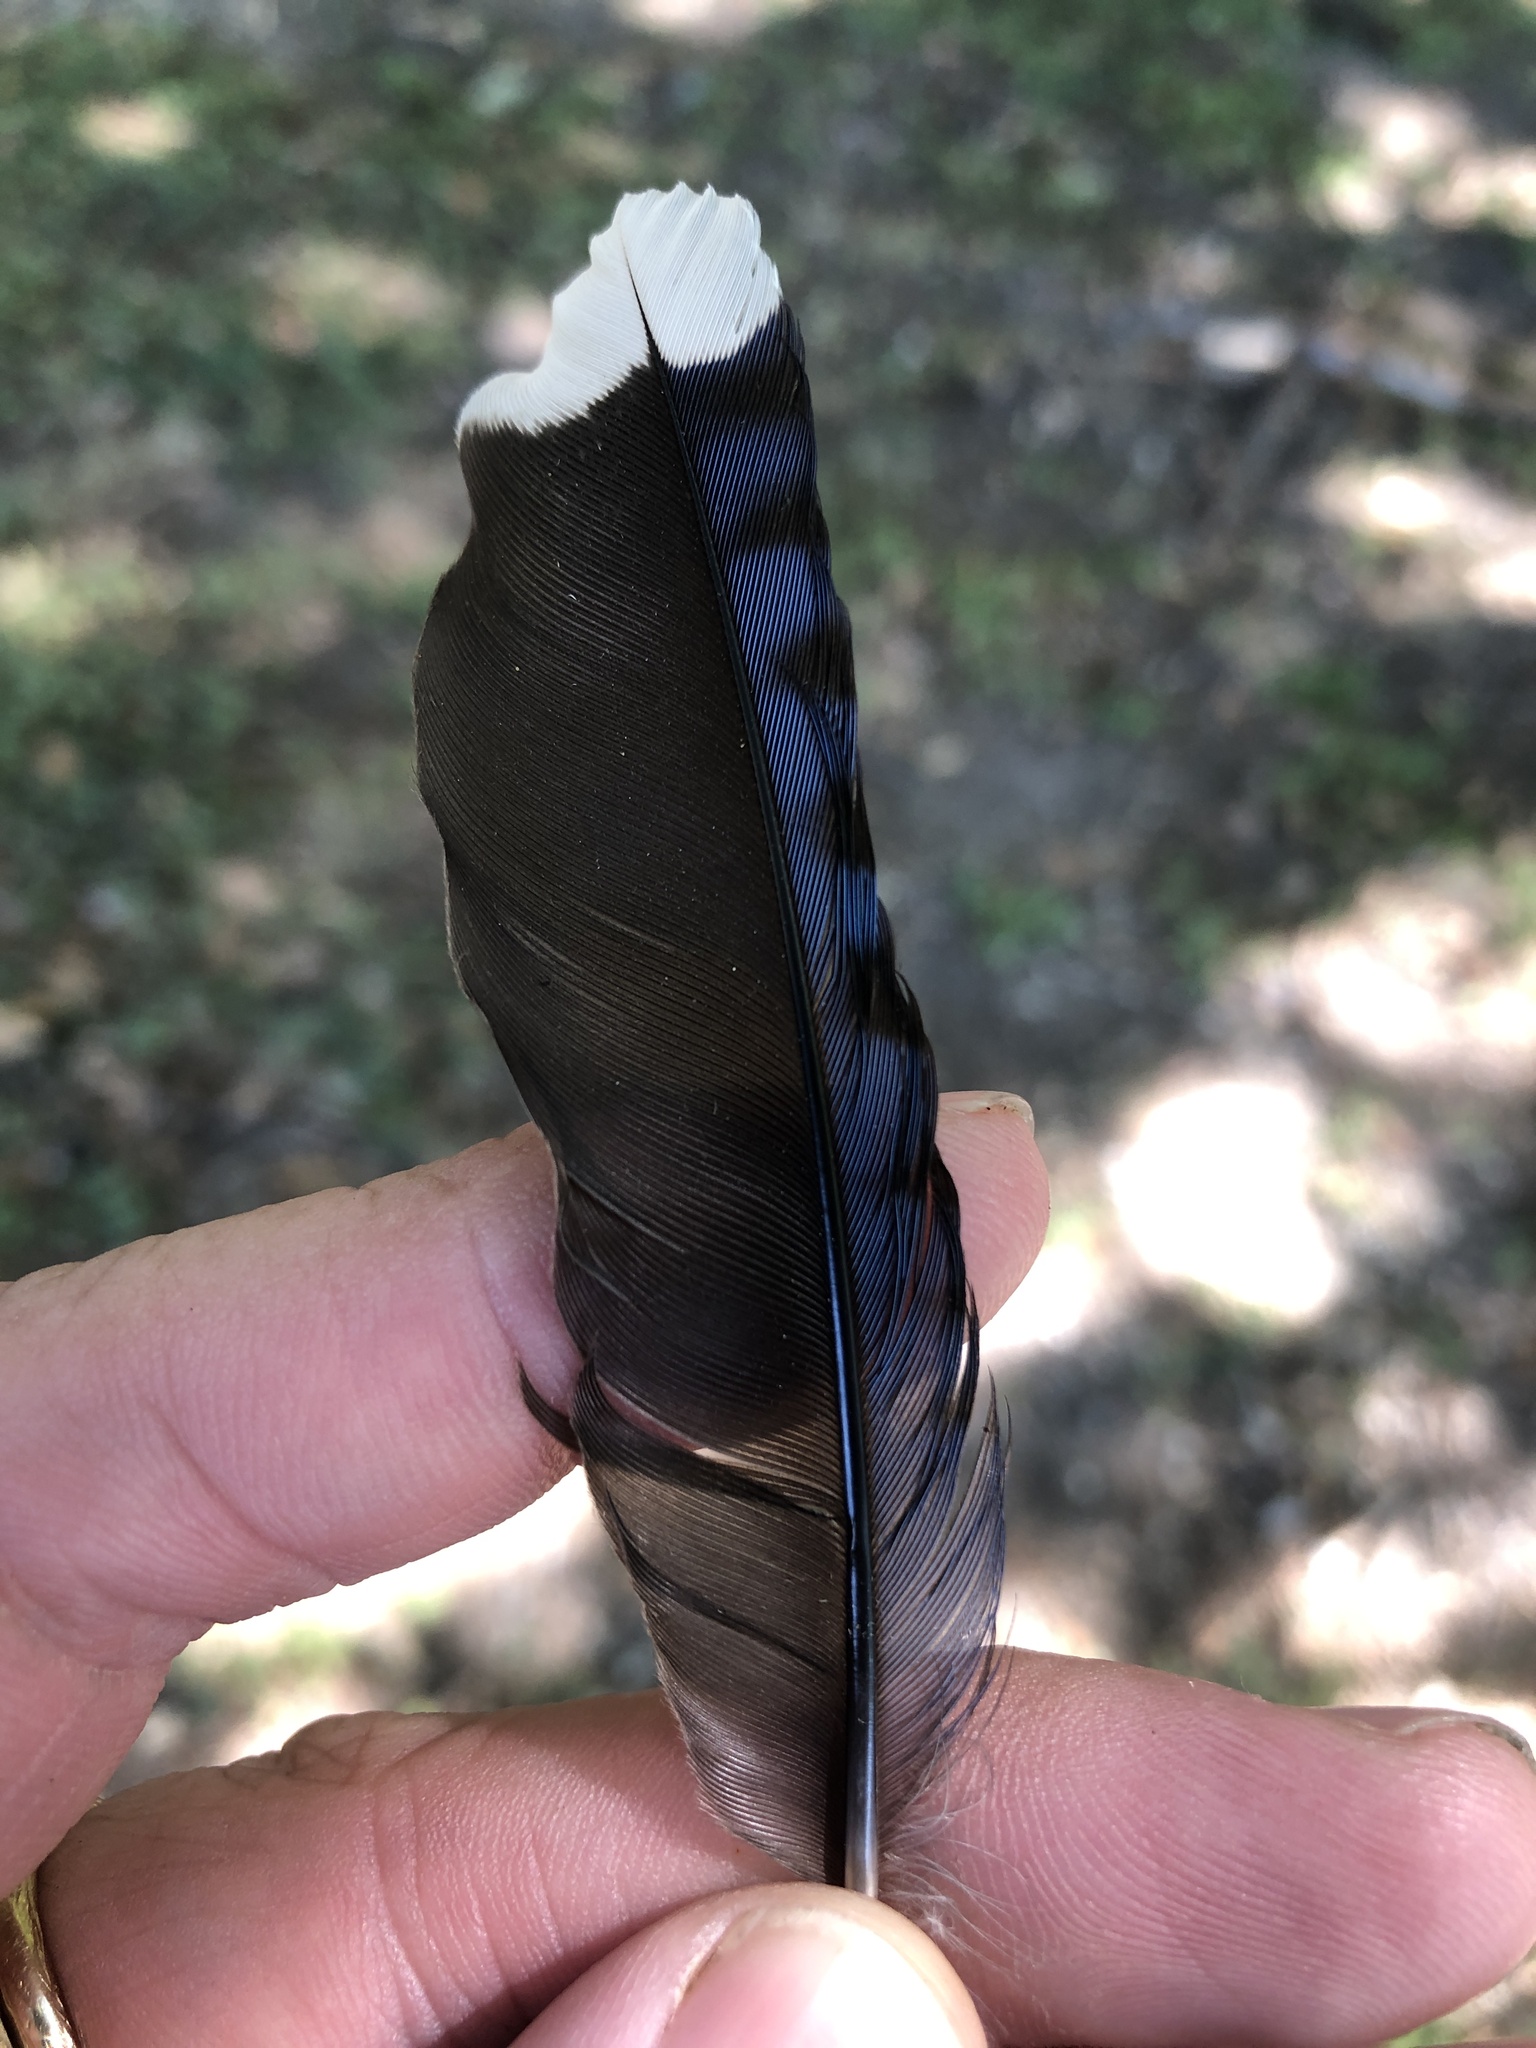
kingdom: Animalia
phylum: Chordata
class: Aves
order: Passeriformes
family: Corvidae
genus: Cyanocitta
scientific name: Cyanocitta cristata
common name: Blue jay
